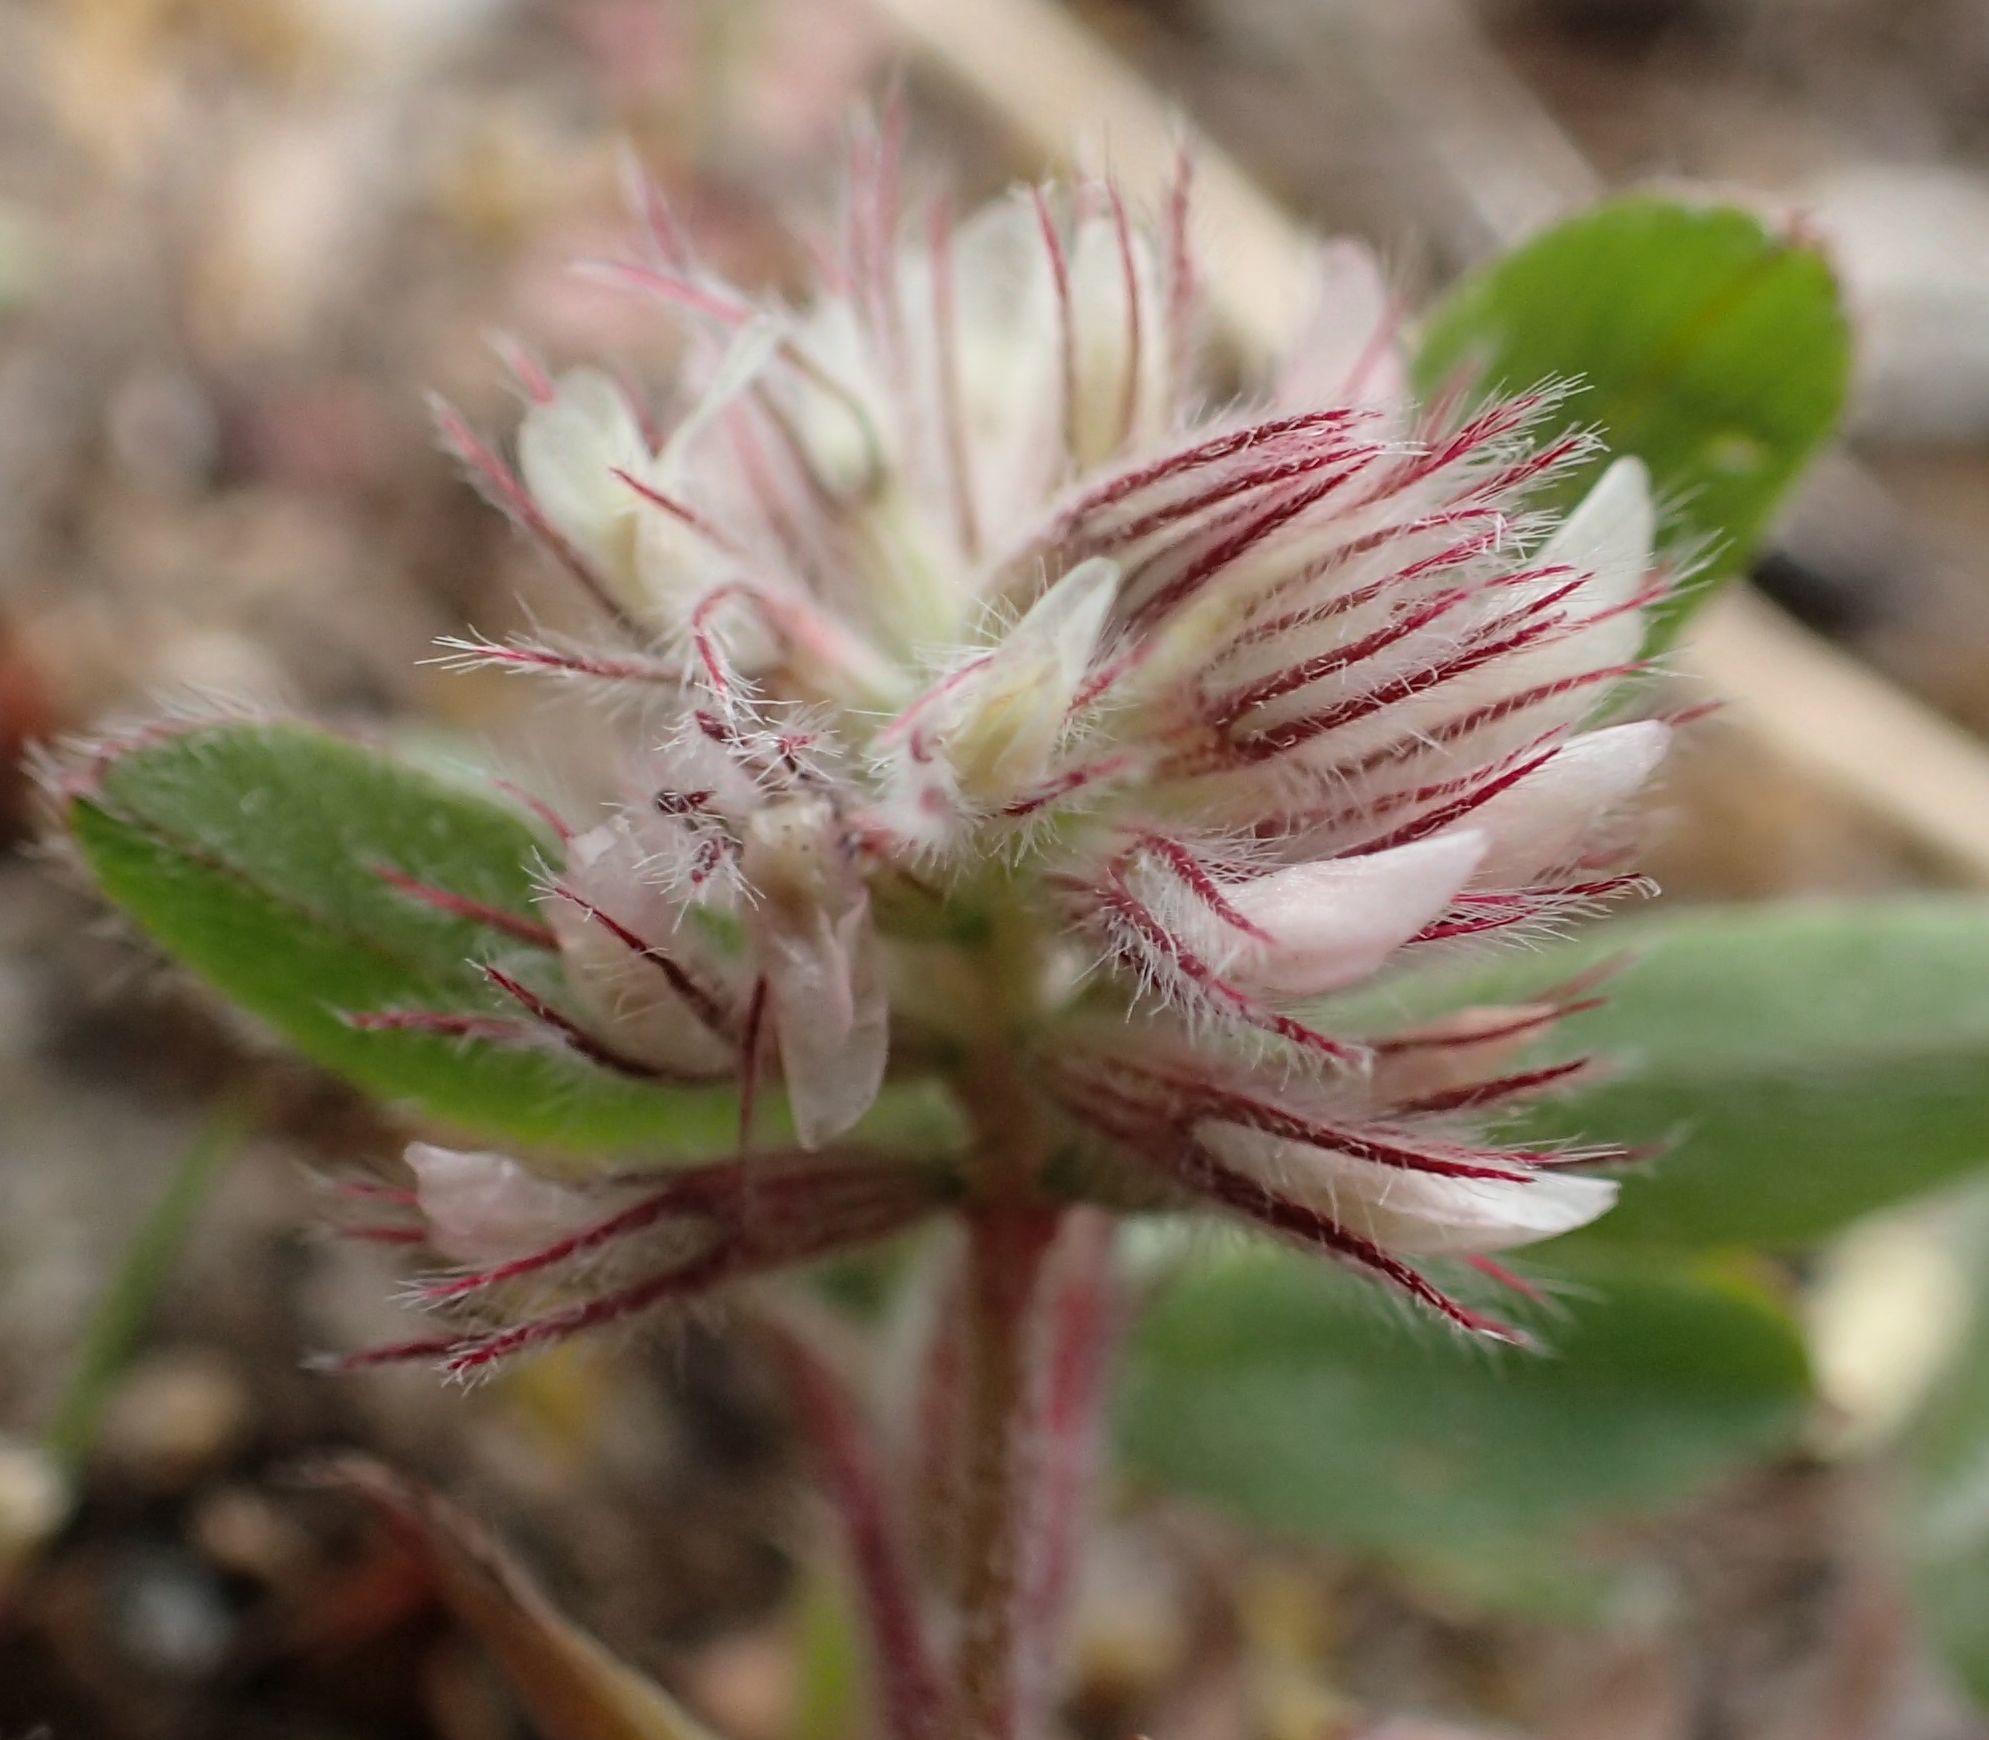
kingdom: Plantae
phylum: Tracheophyta
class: Magnoliopsida
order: Fabales
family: Fabaceae
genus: Trifolium
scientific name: Trifolium arvense
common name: Hare's-foot clover
